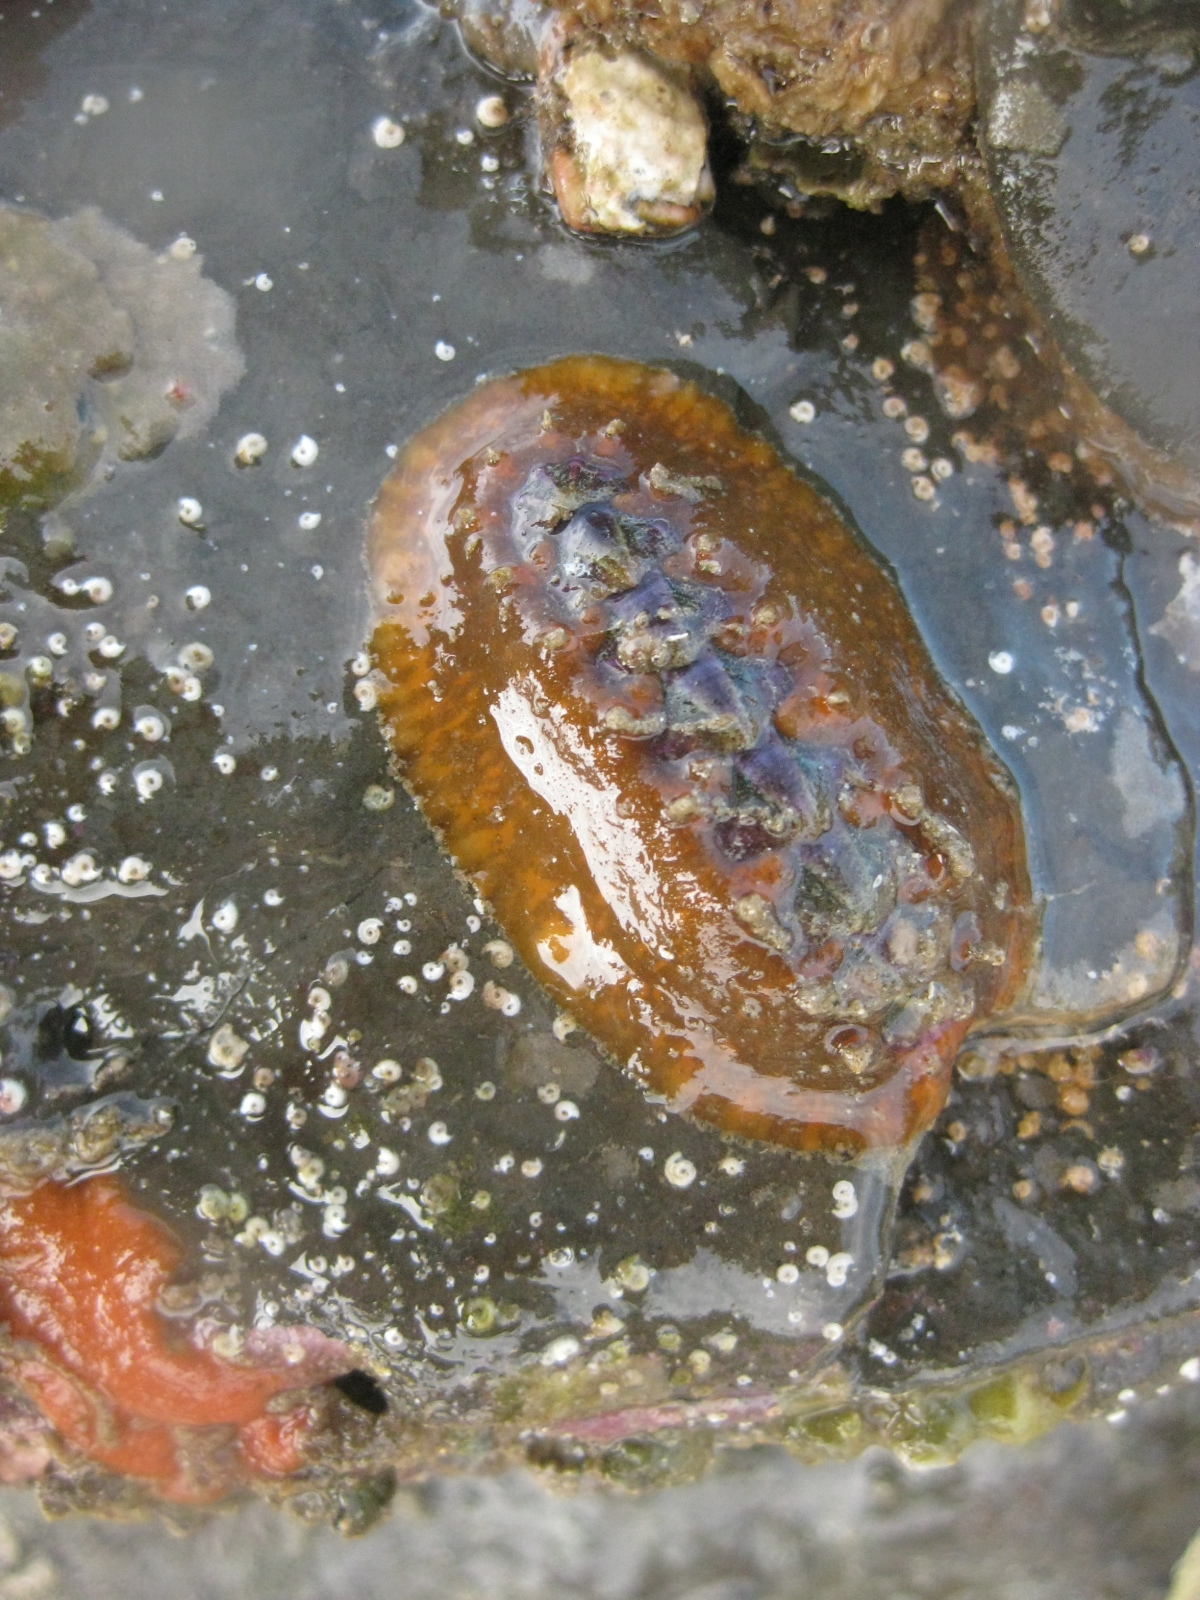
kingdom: Animalia
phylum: Mollusca
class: Polyplacophora
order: Chitonida
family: Acanthochitonidae
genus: Notoplax
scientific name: Notoplax violacea
